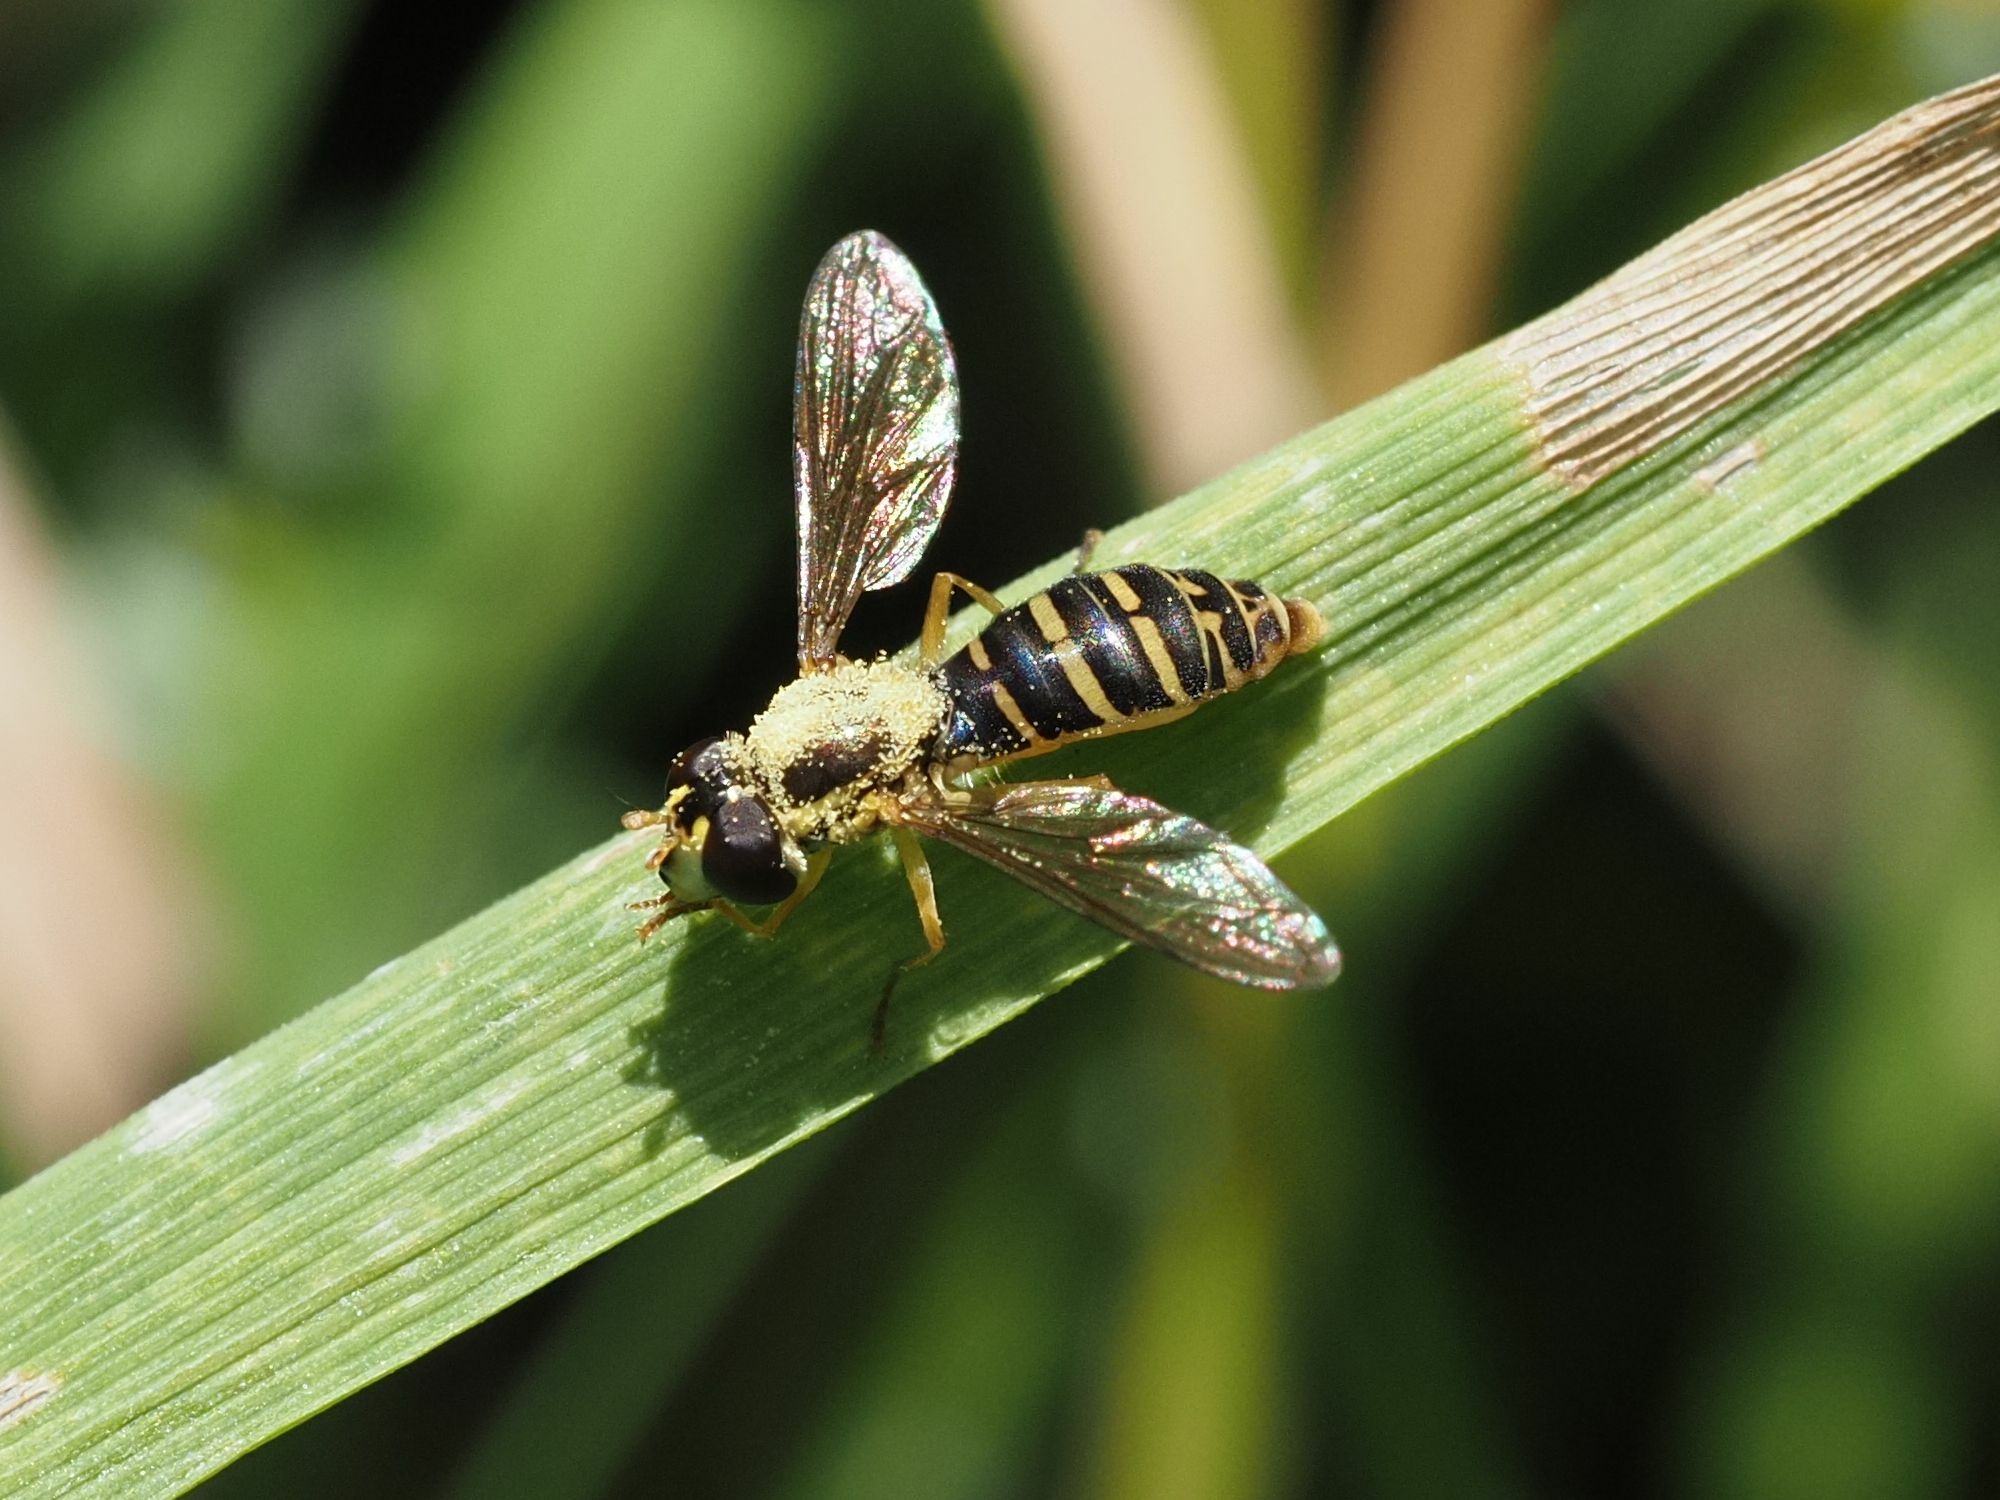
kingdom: Animalia
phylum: Arthropoda
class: Insecta
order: Diptera
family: Syrphidae
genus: Sphaerophoria
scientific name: Sphaerophoria
